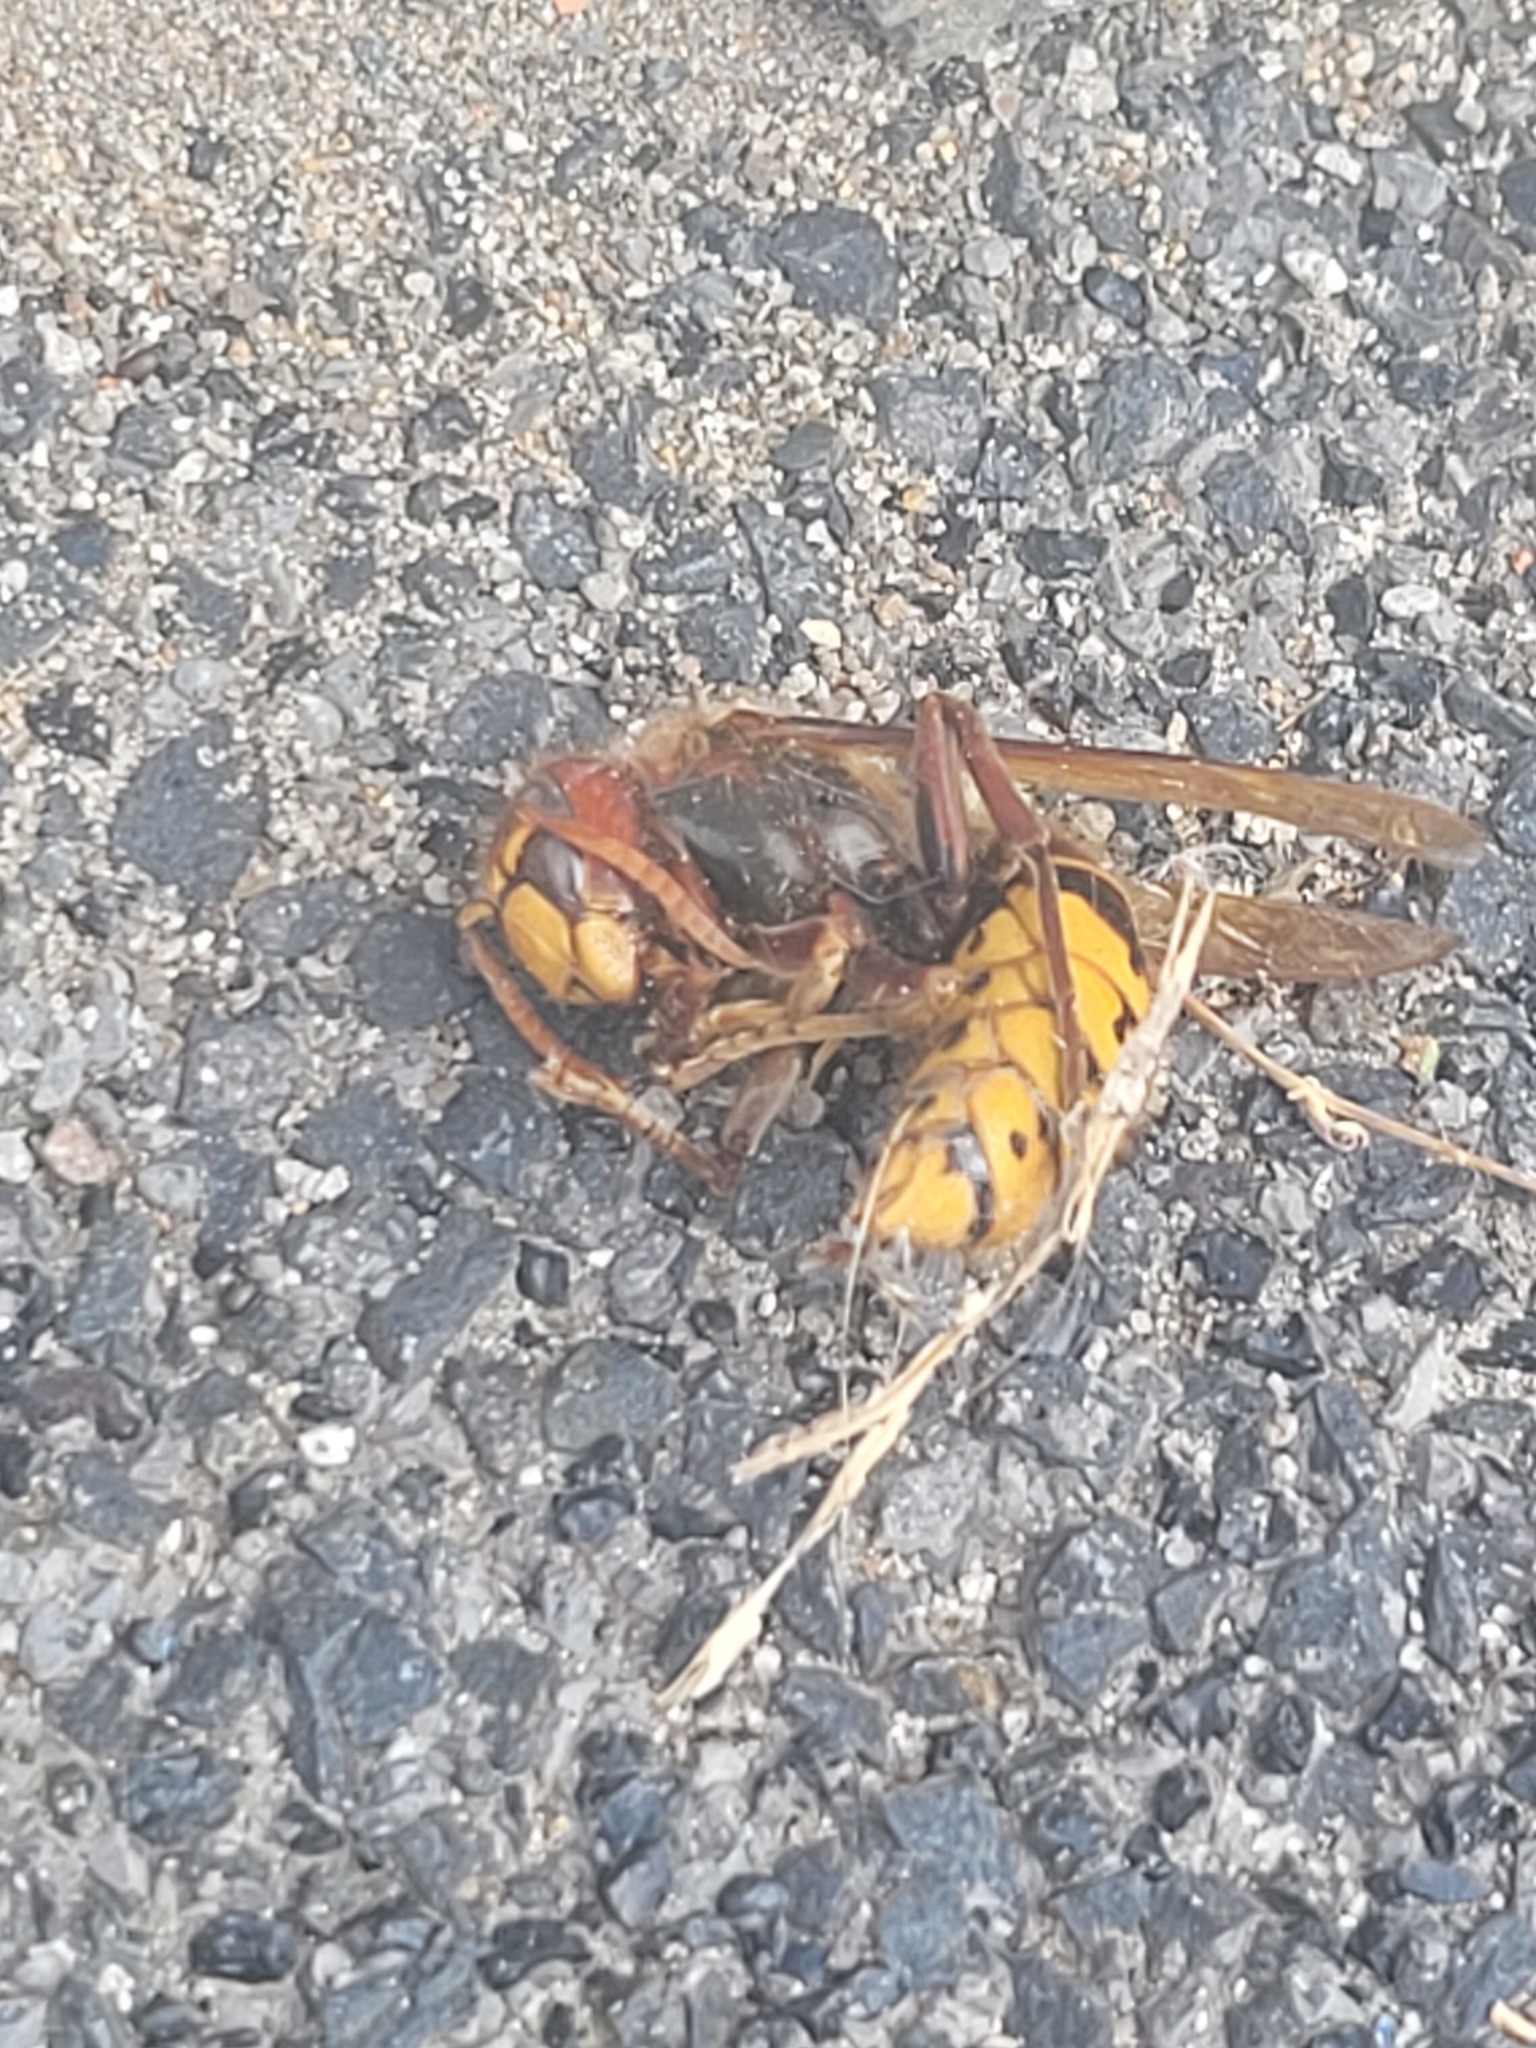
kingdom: Animalia
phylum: Arthropoda
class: Insecta
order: Hymenoptera
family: Vespidae
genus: Vespa
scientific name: Vespa crabro
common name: Hornet
